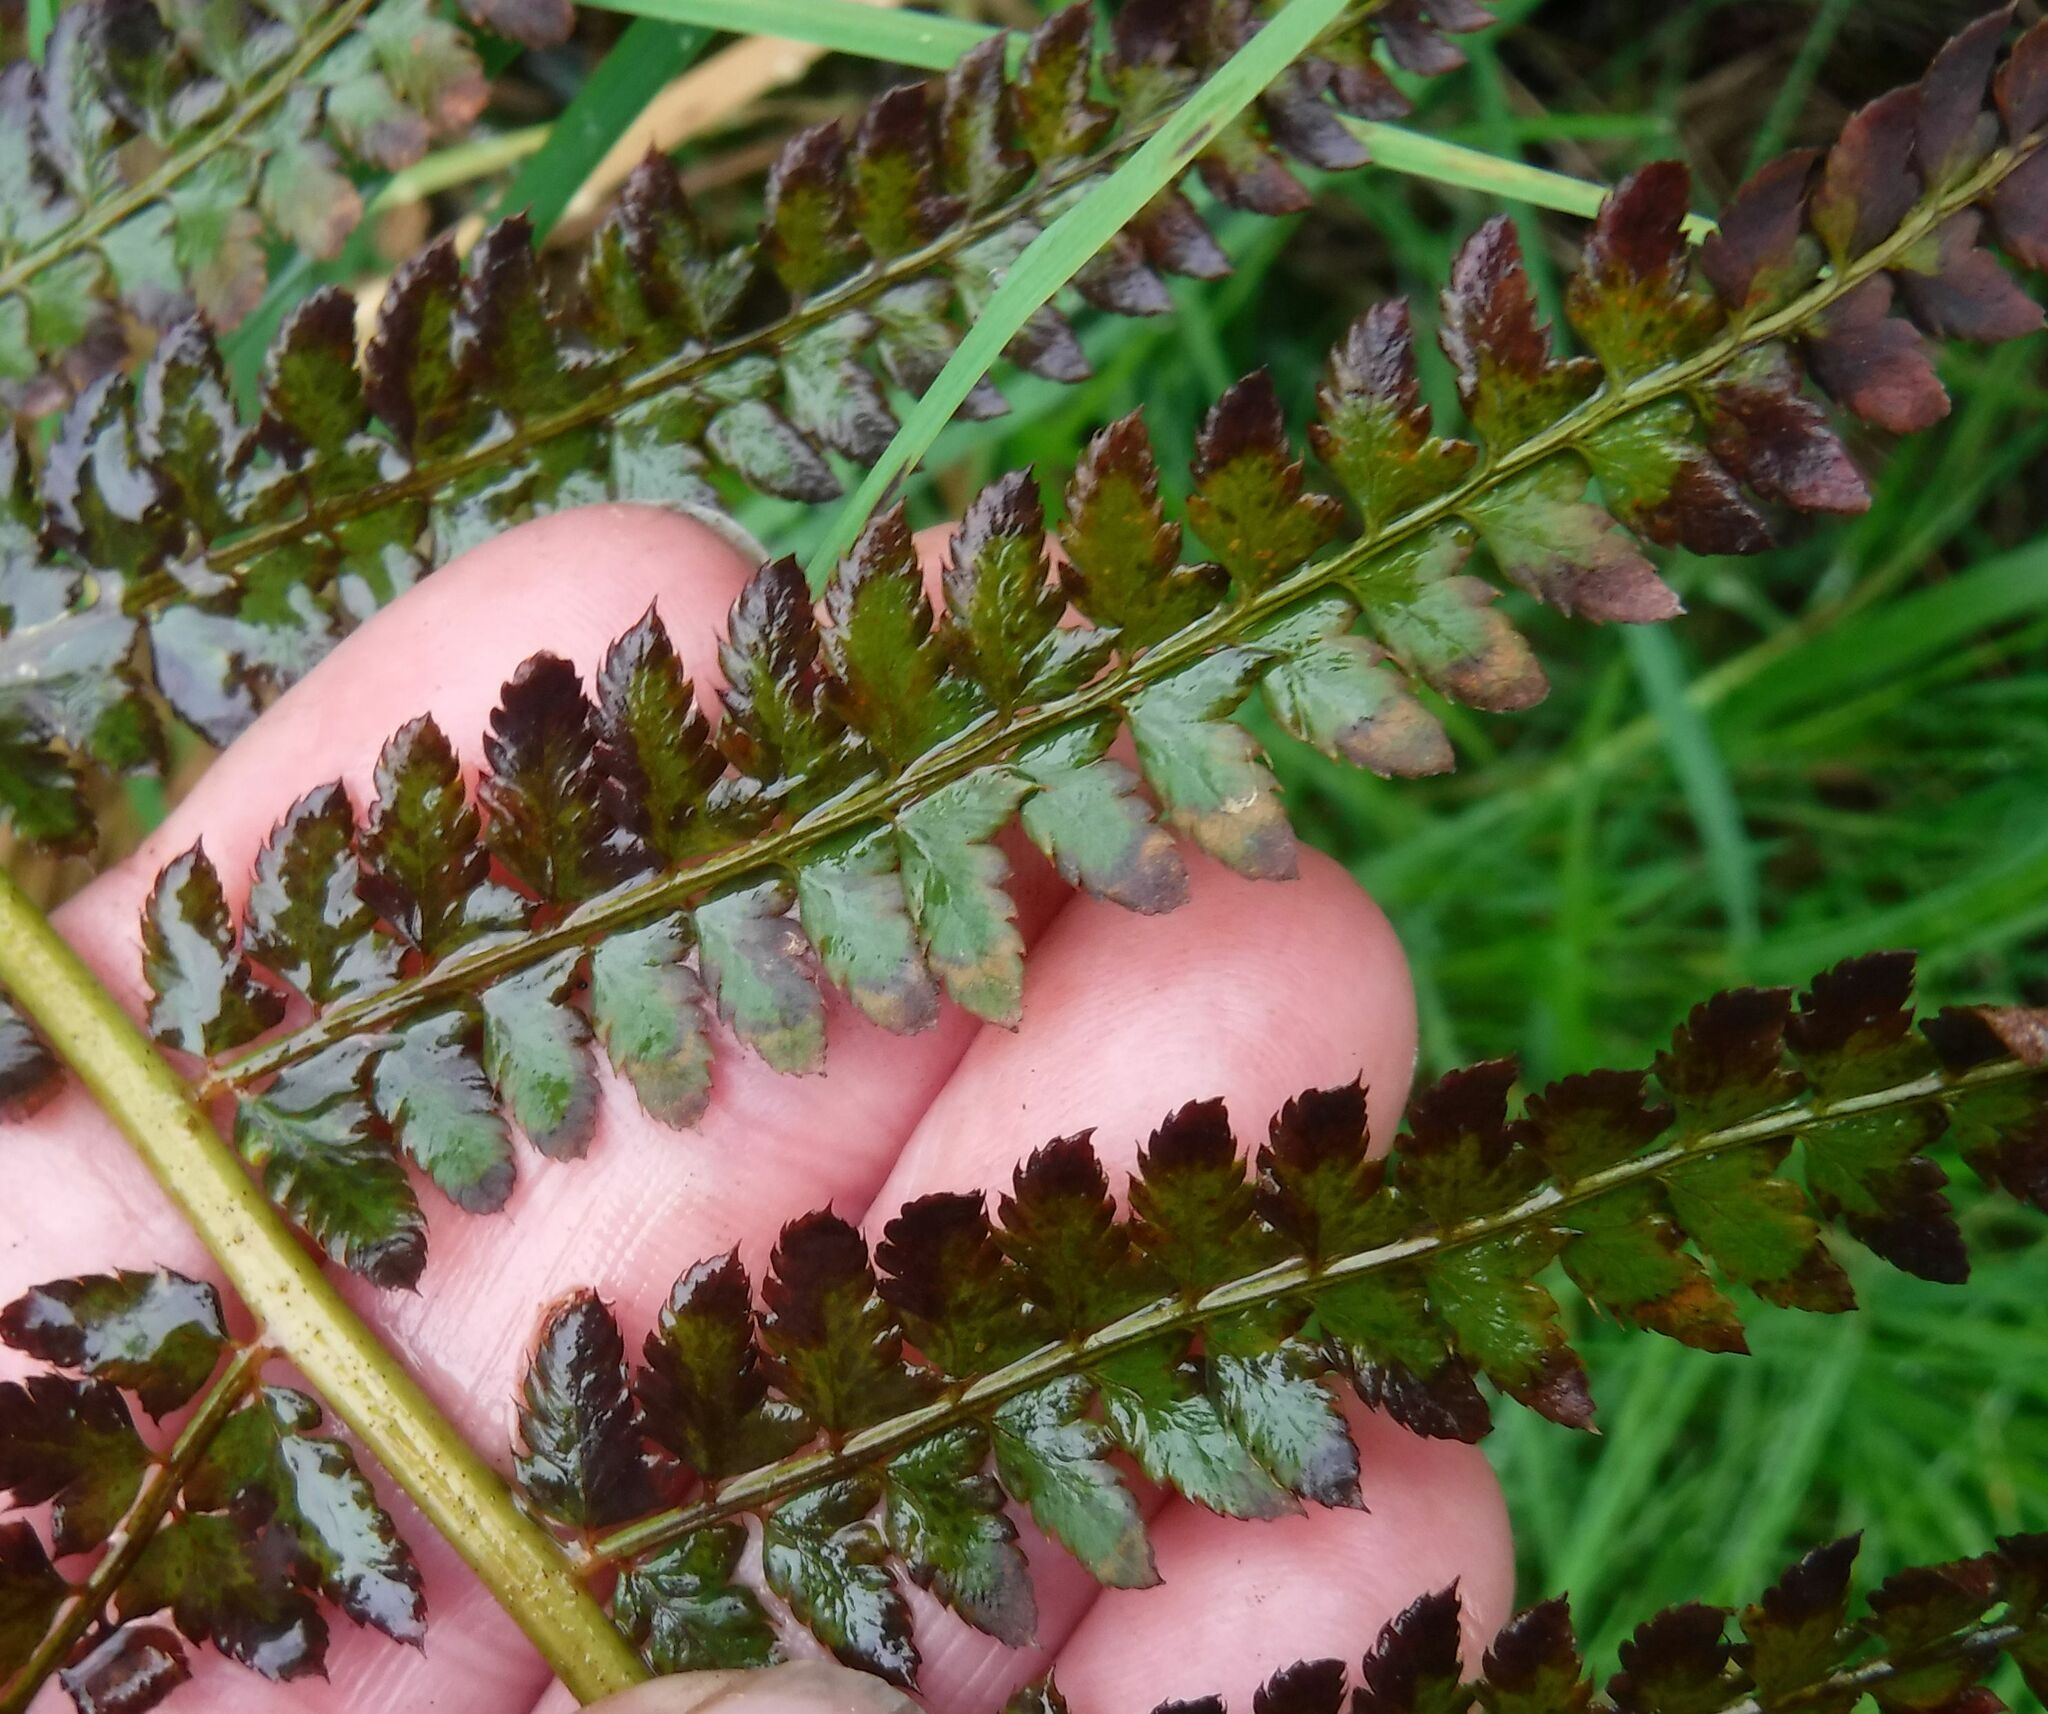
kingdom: Plantae
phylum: Tracheophyta
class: Polypodiopsida
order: Polypodiales
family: Dryopteridaceae
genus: Polystichum
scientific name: Polystichum setiferum
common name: Soft shield-fern
